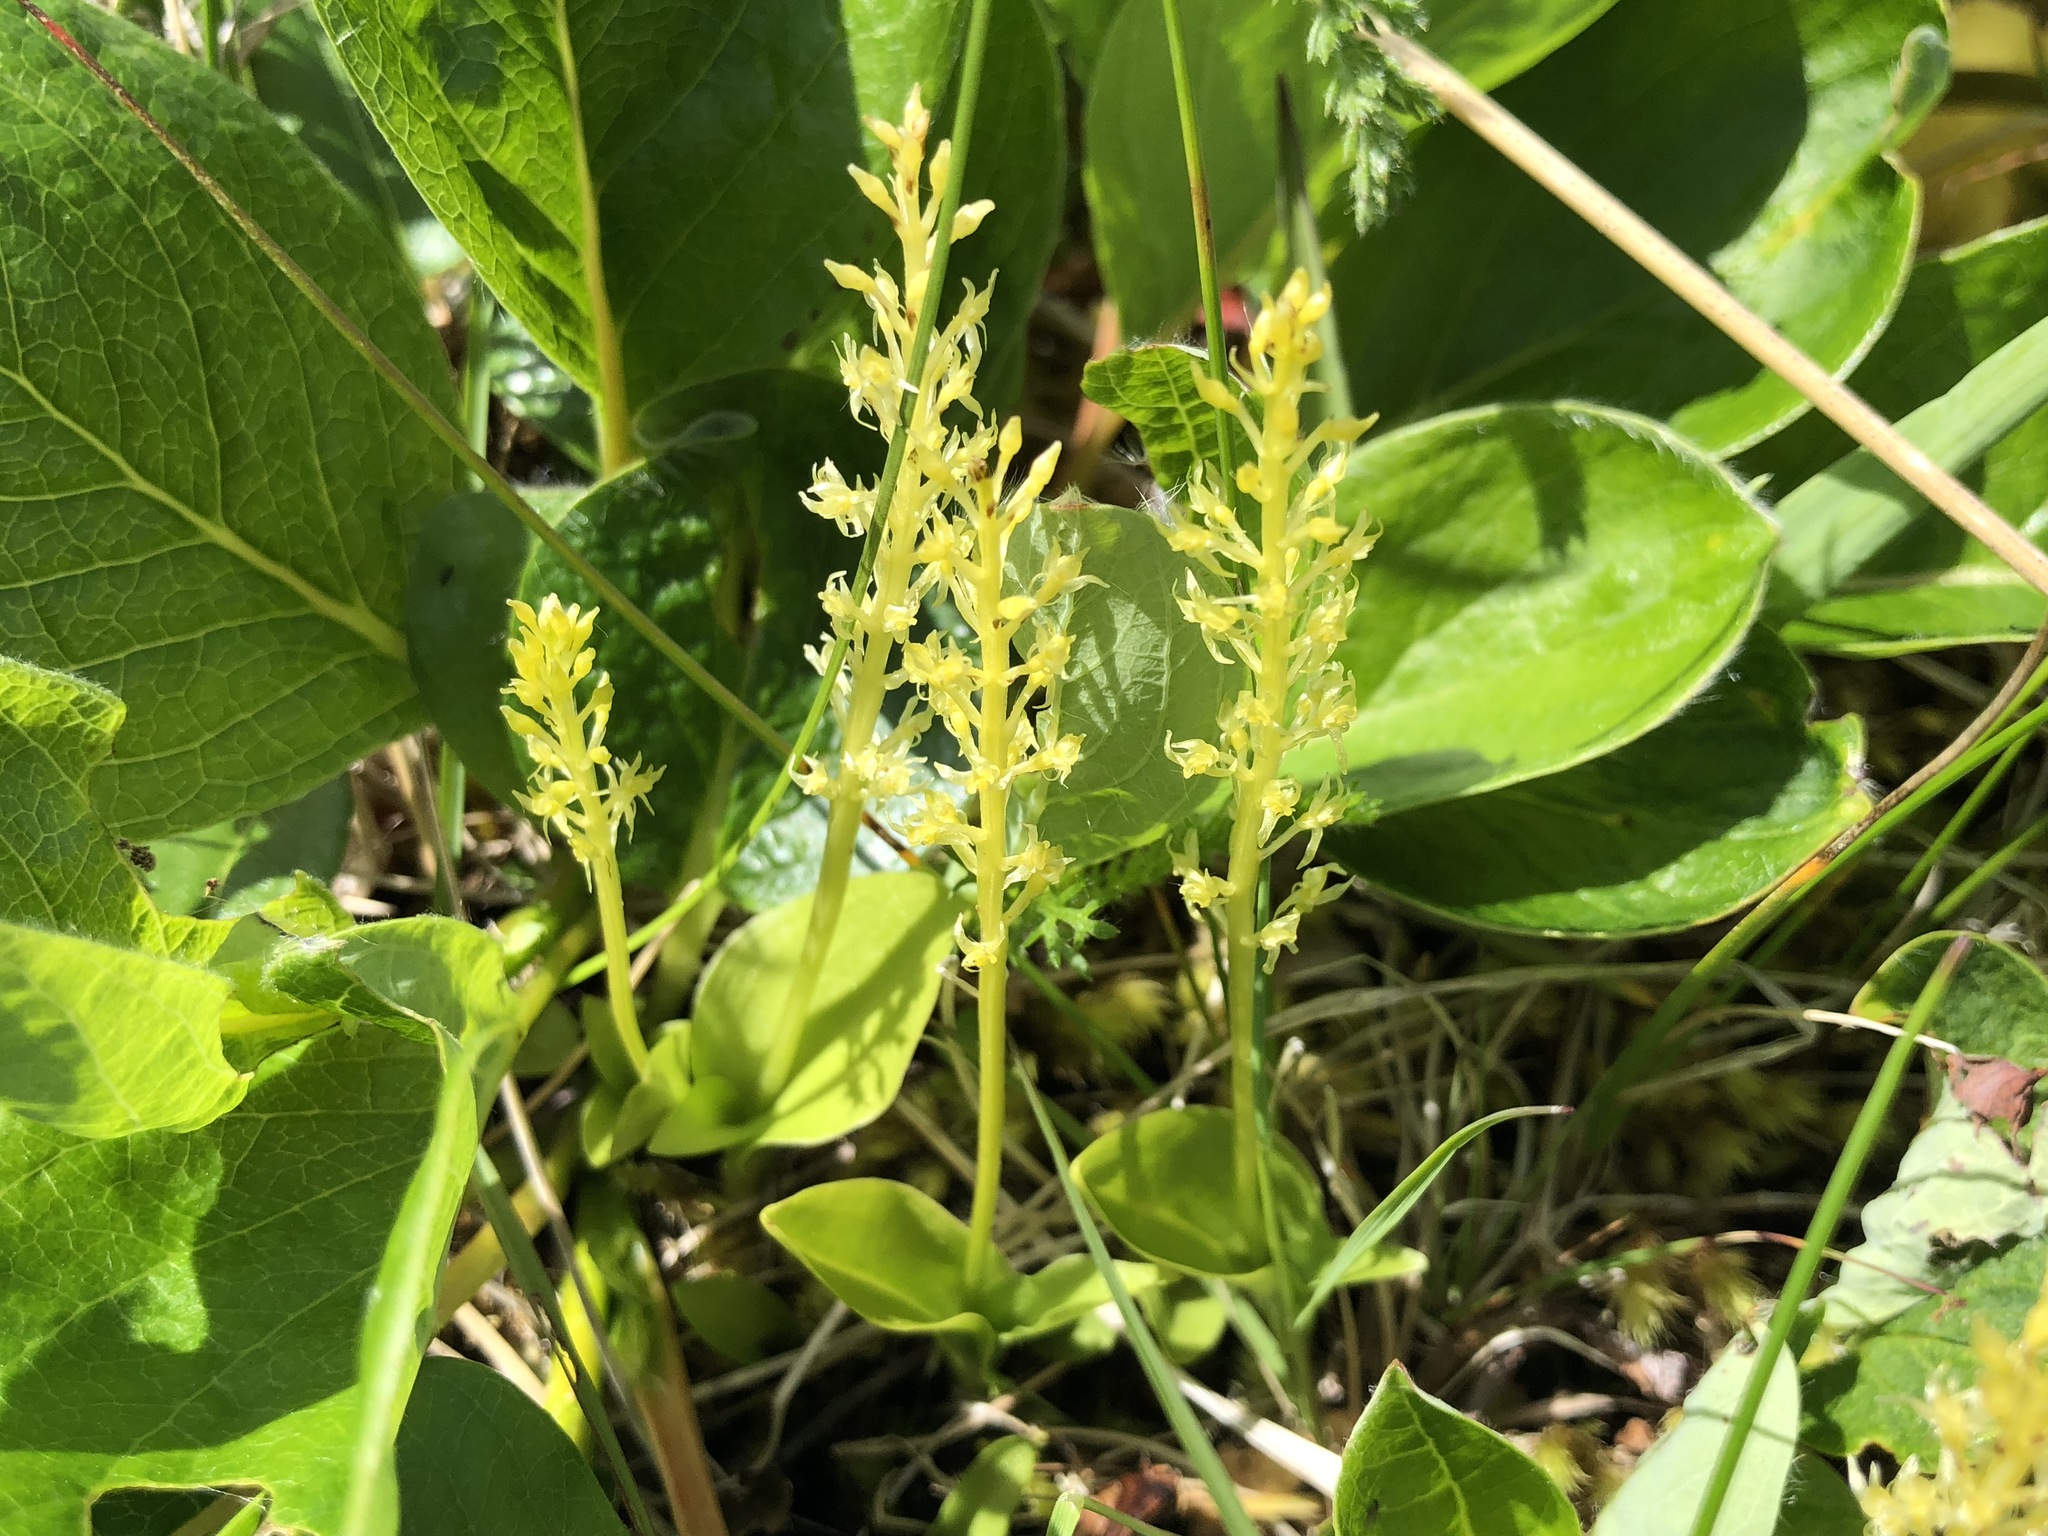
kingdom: Plantae
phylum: Tracheophyta
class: Liliopsida
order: Asparagales
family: Orchidaceae
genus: Malaxis
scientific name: Malaxis monophyllos
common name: White adder's-mouth
